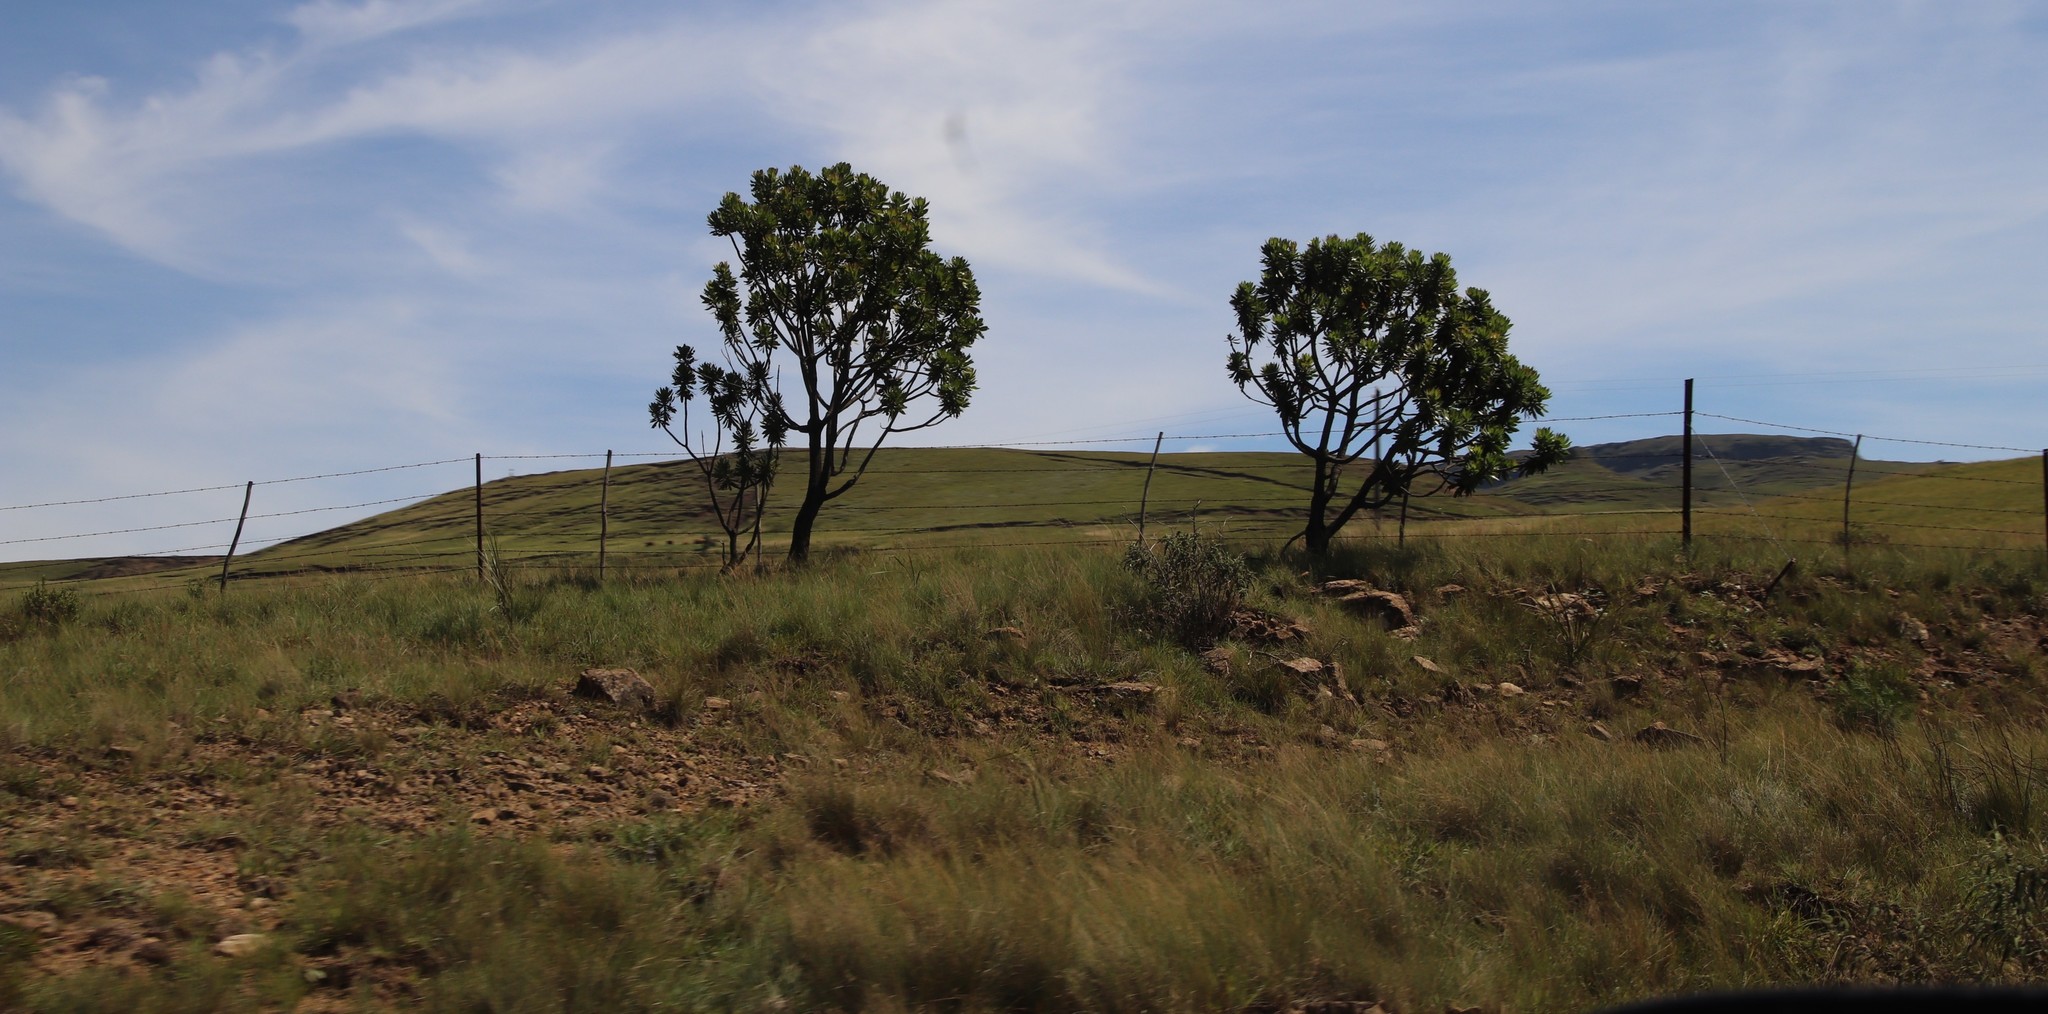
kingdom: Plantae
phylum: Tracheophyta
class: Magnoliopsida
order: Proteales
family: Proteaceae
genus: Protea
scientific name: Protea roupelliae
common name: Silver sugarbush
